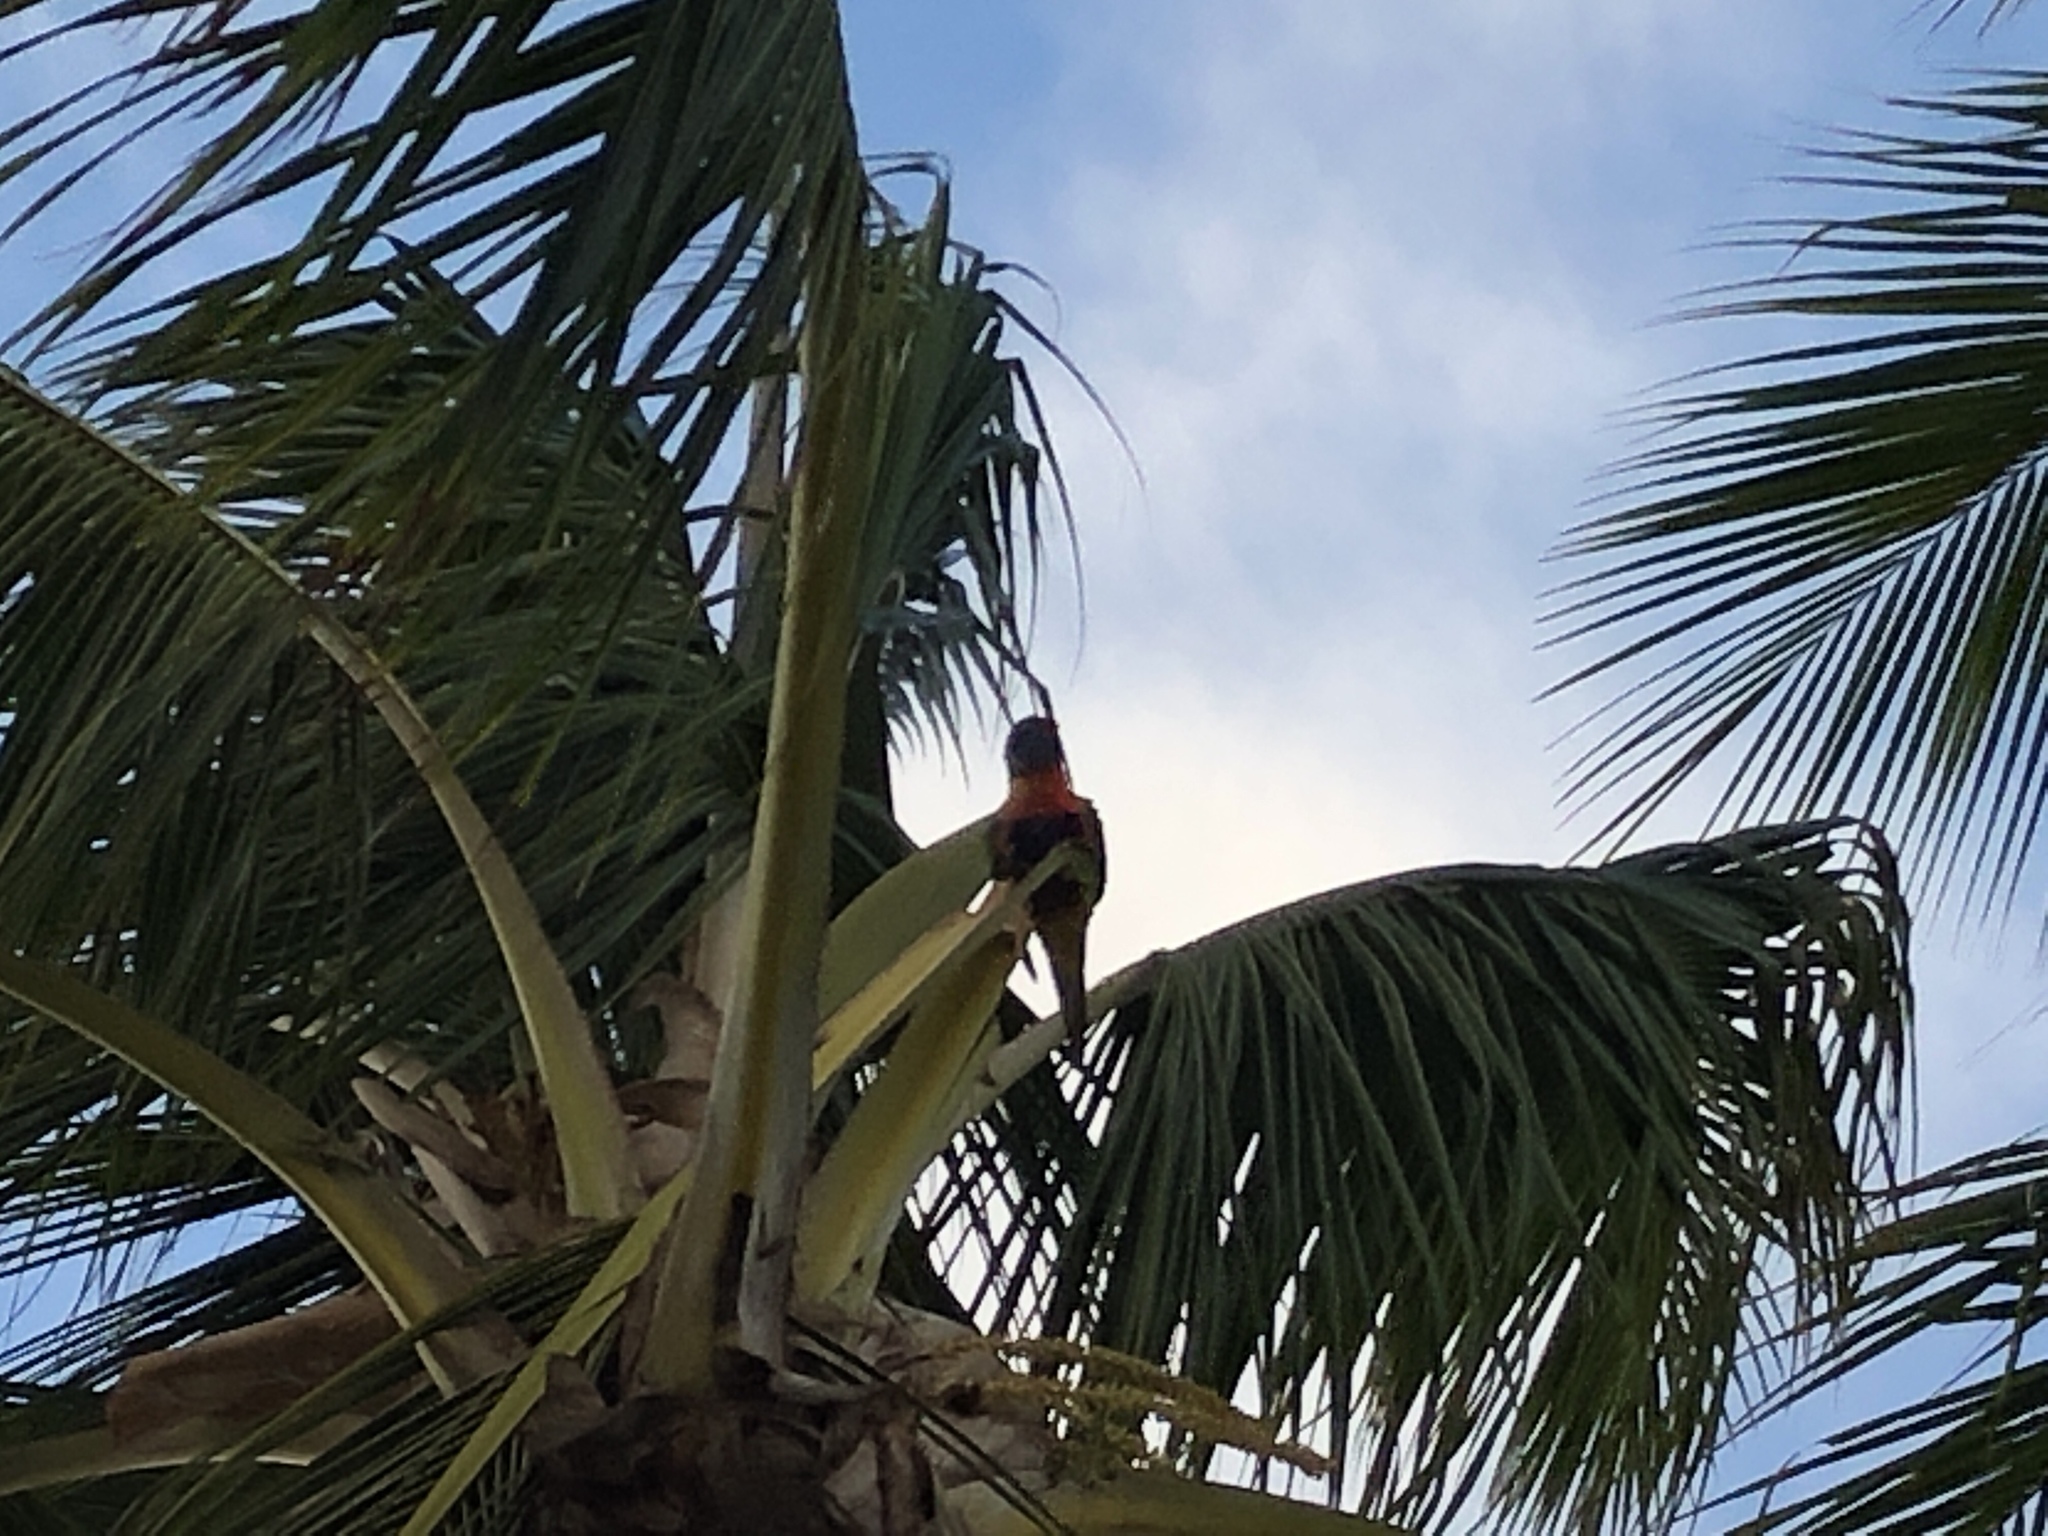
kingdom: Animalia
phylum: Chordata
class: Aves
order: Psittaciformes
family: Psittacidae
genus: Trichoglossus
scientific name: Trichoglossus haematodus
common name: Coconut lorikeet
